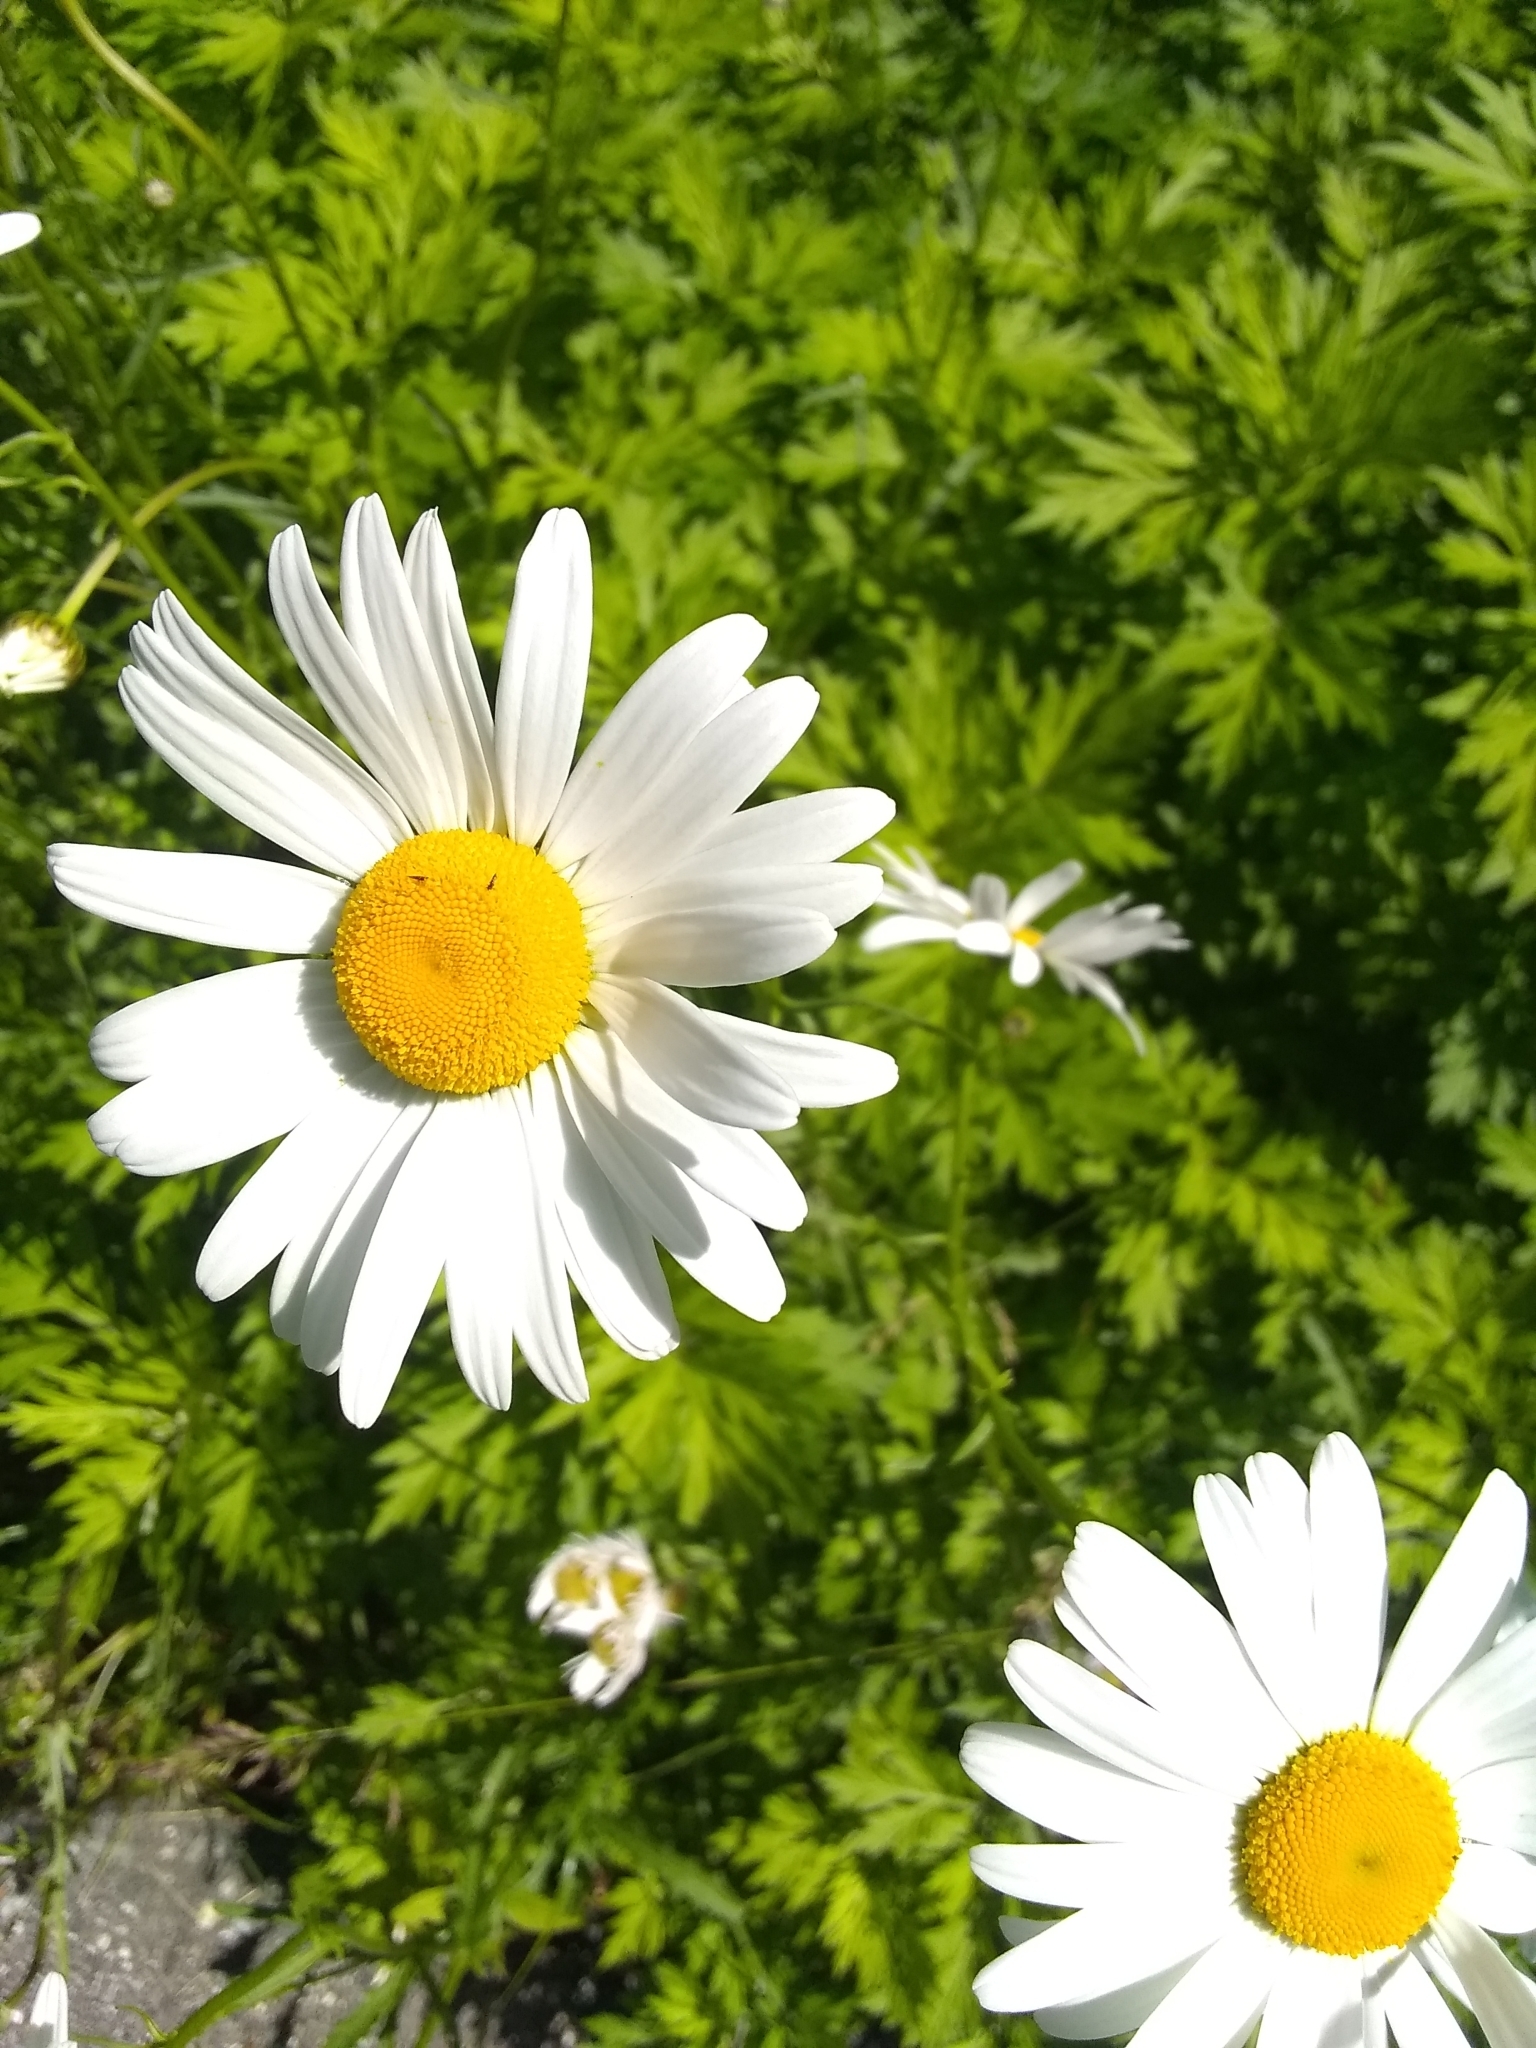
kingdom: Plantae
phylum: Tracheophyta
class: Magnoliopsida
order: Asterales
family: Asteraceae
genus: Leucanthemum
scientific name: Leucanthemum vulgare
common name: Oxeye daisy
